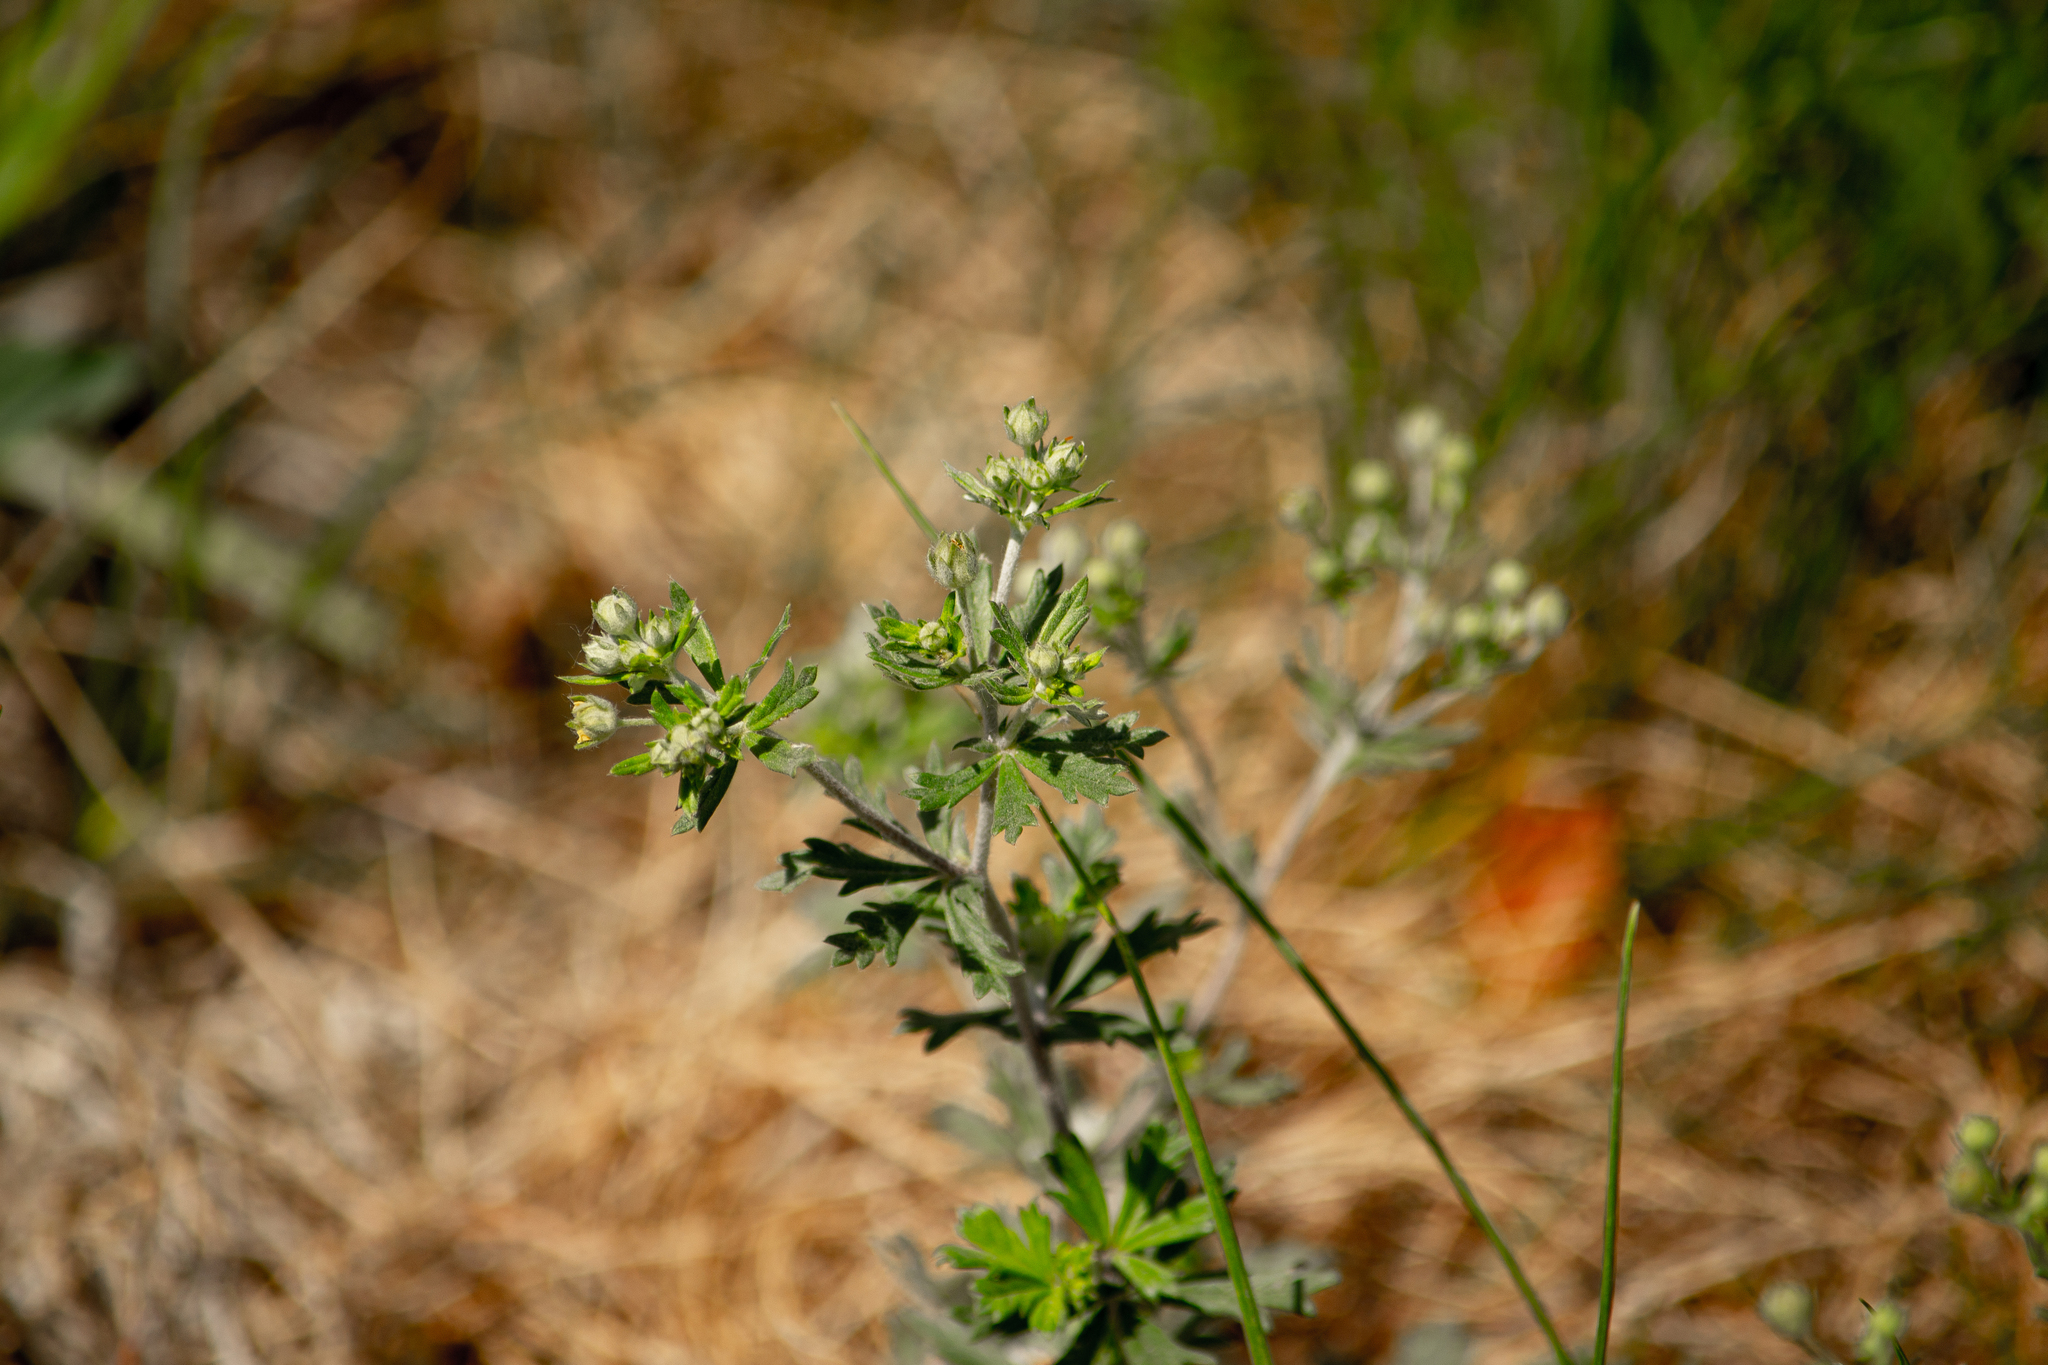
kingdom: Plantae
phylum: Tracheophyta
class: Magnoliopsida
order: Rosales
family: Rosaceae
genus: Potentilla
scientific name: Potentilla argentea
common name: Hoary cinquefoil
